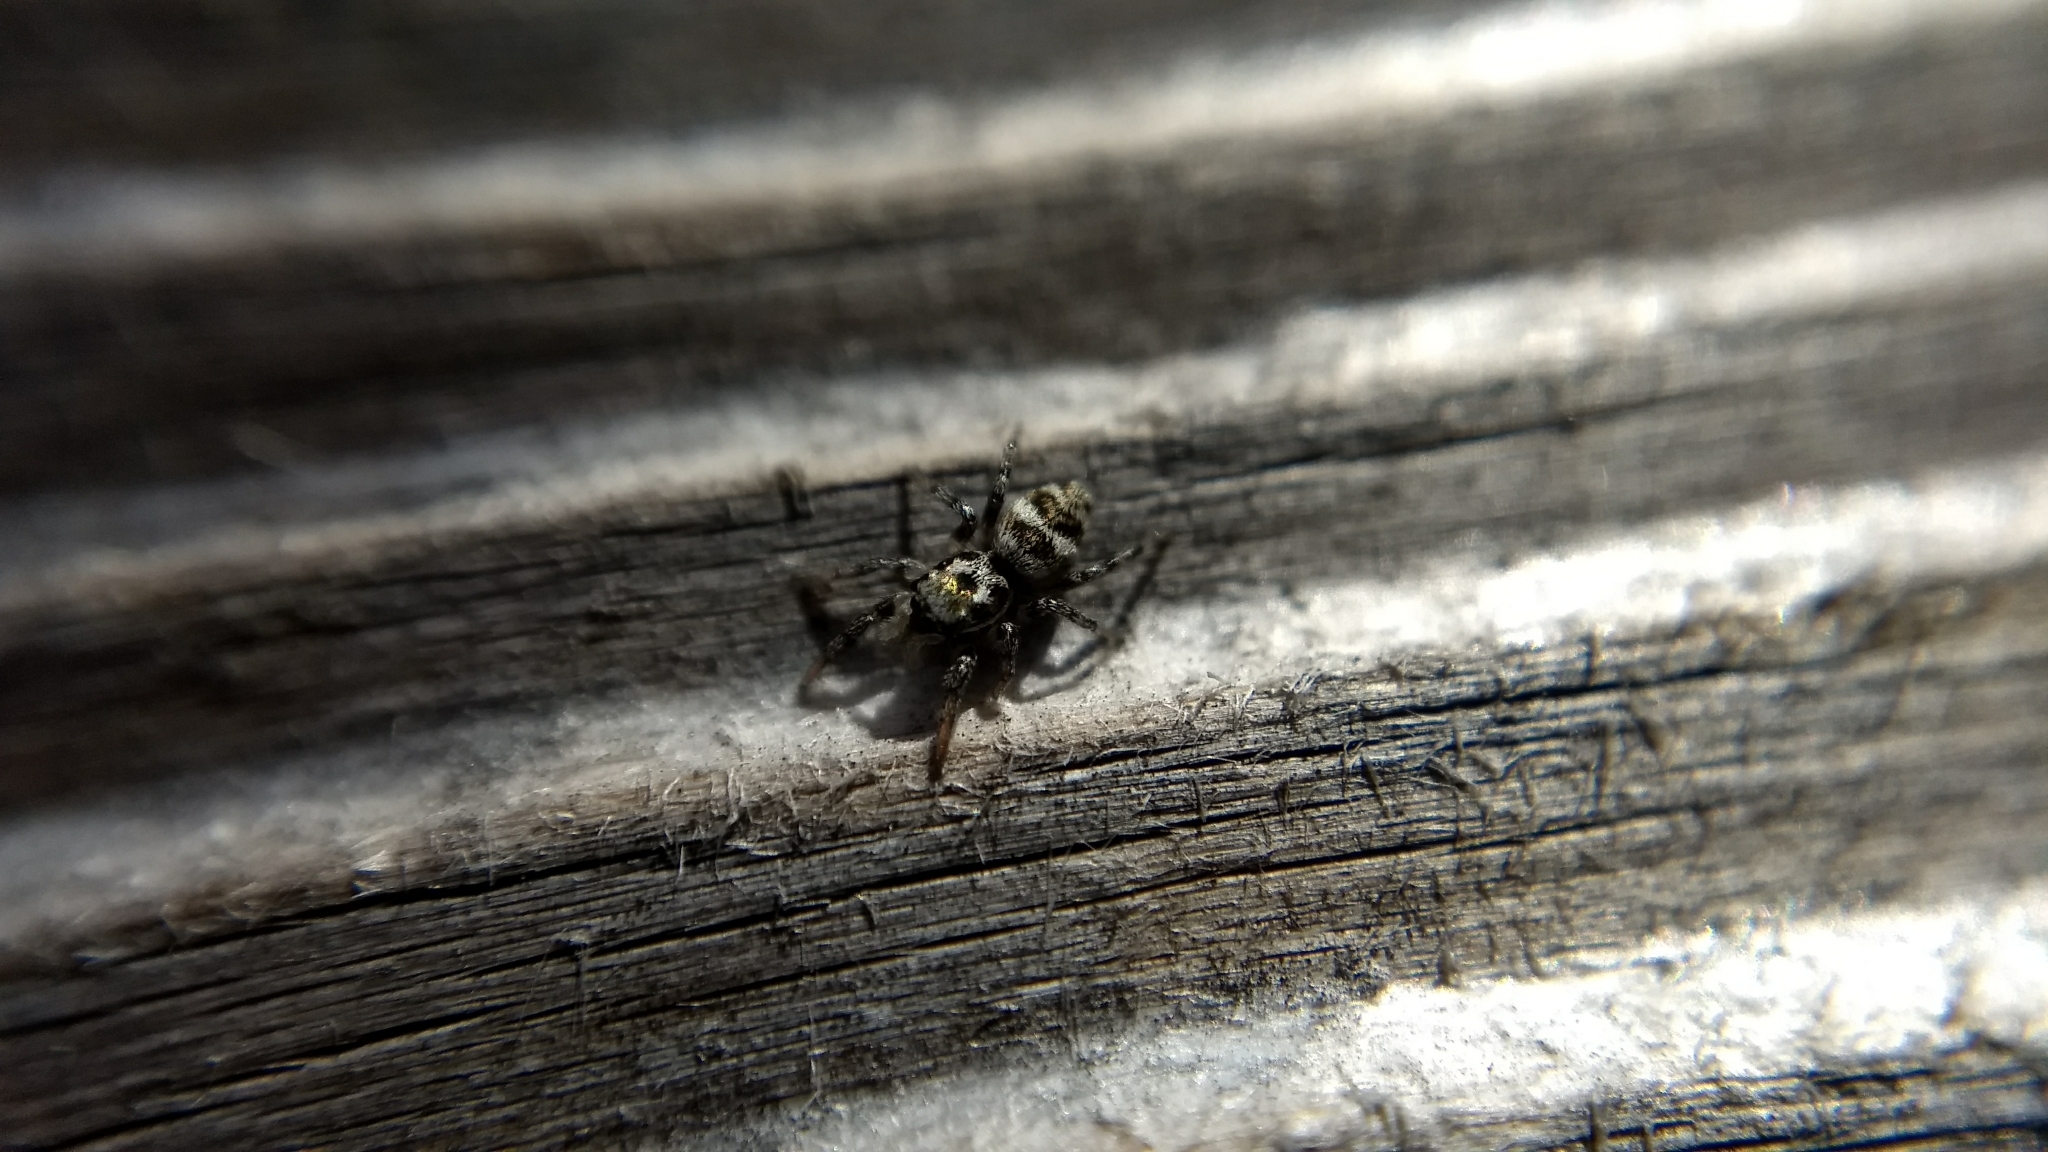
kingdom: Animalia
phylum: Arthropoda
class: Arachnida
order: Araneae
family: Salticidae
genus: Salticus
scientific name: Salticus scenicus
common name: Zebra jumper
